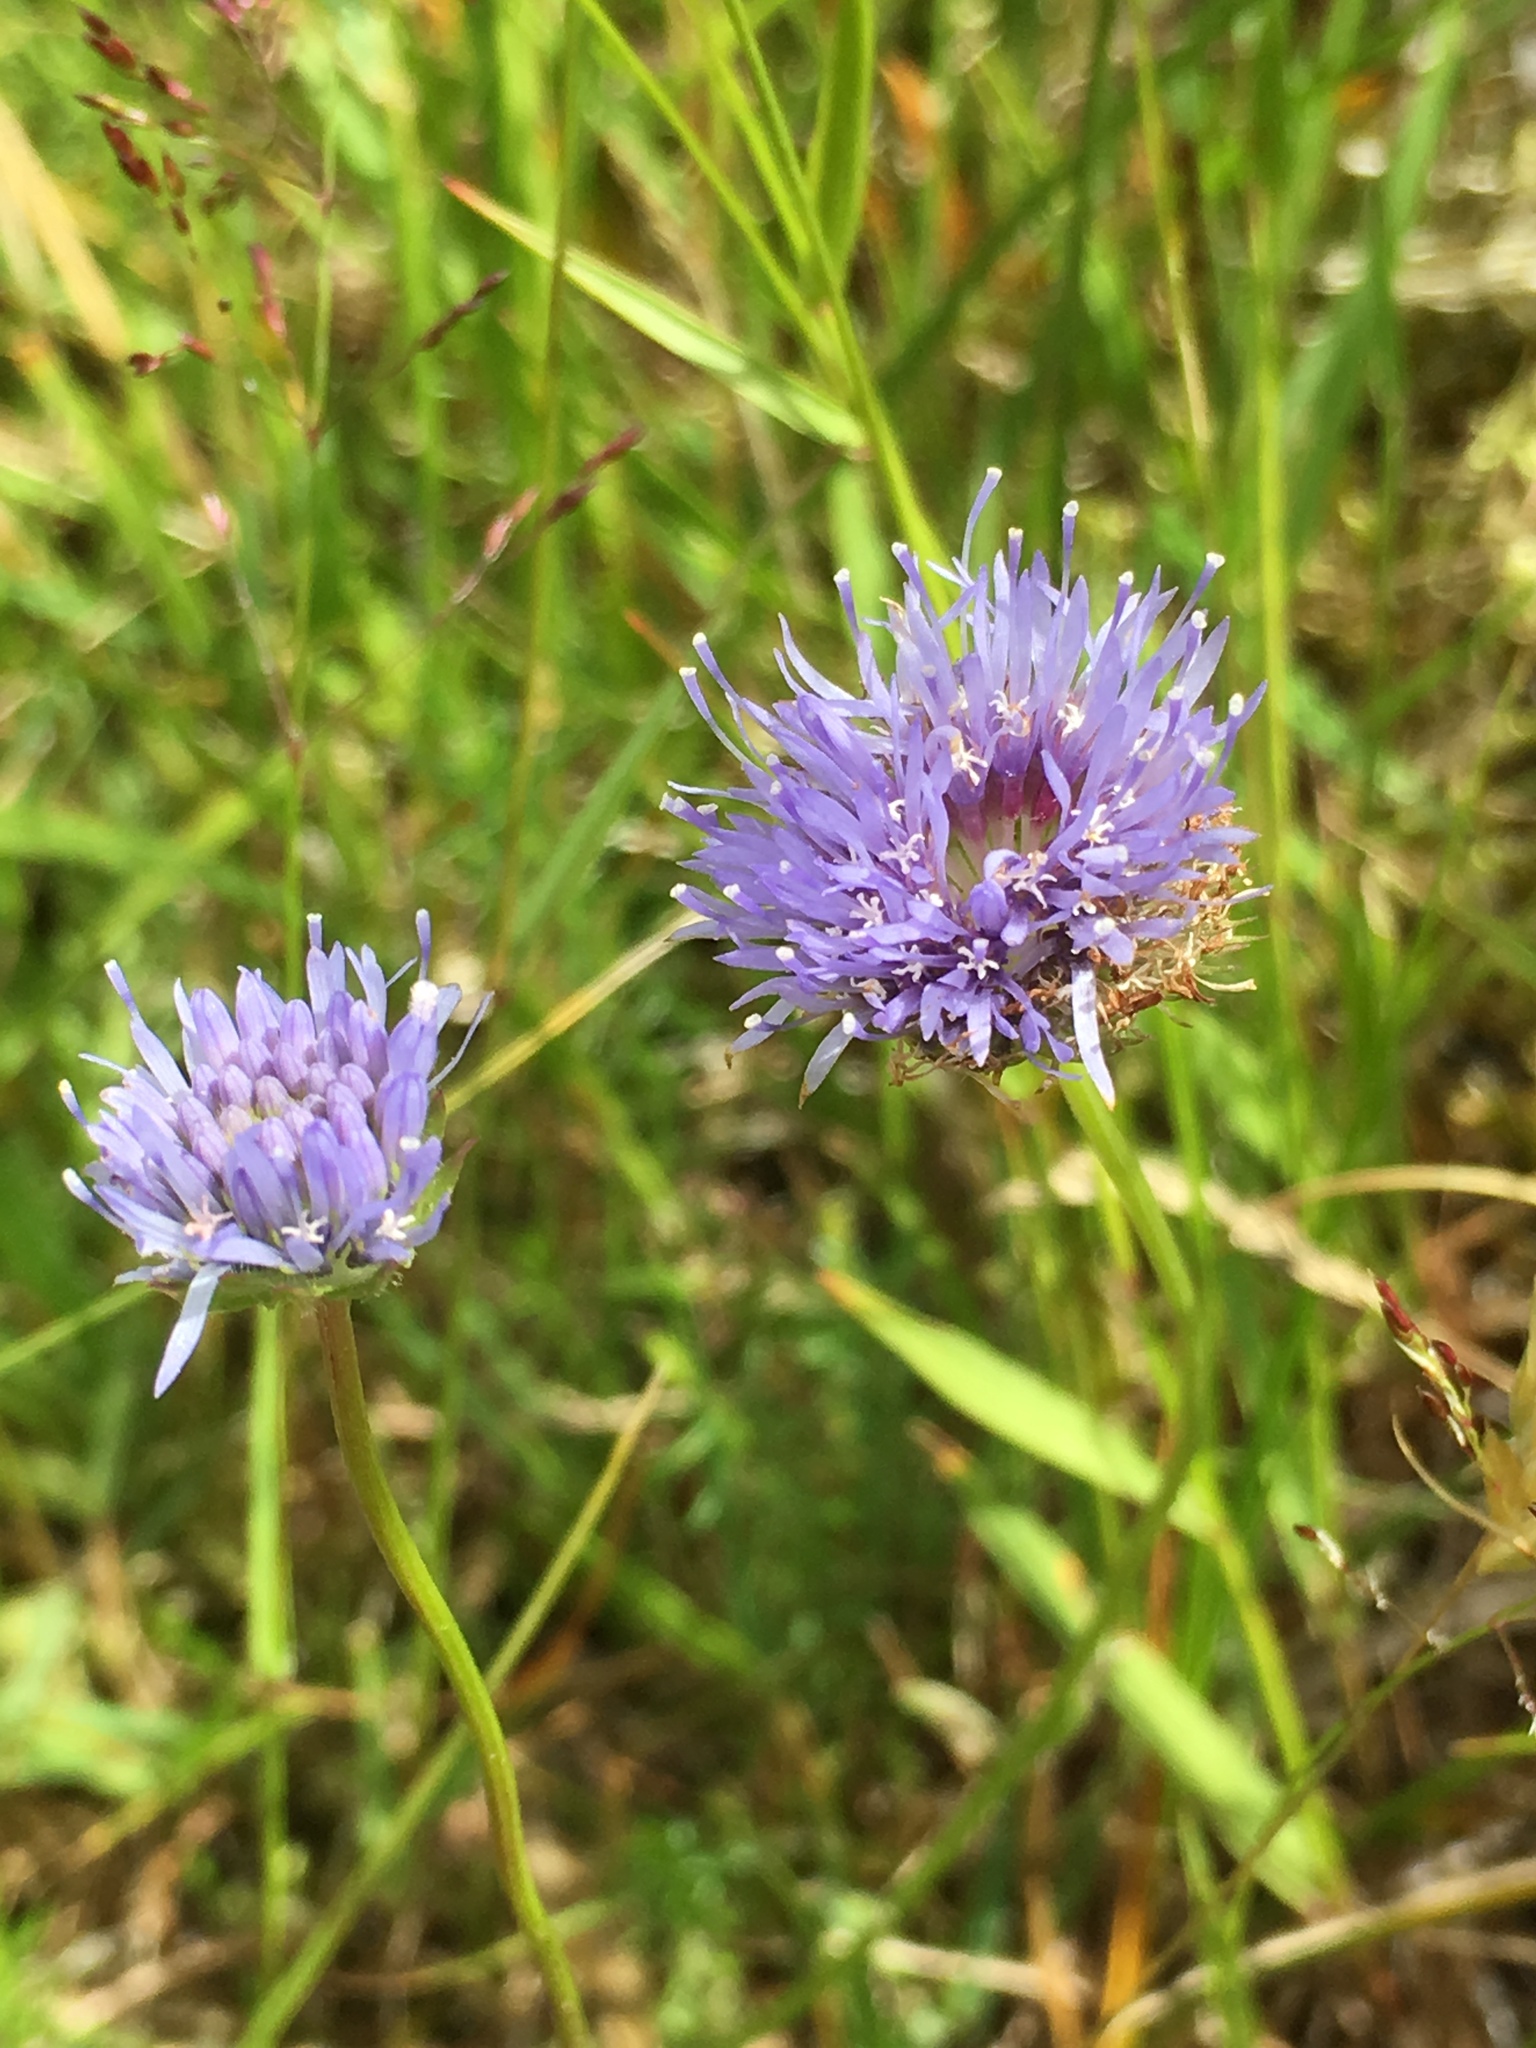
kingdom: Plantae
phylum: Tracheophyta
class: Magnoliopsida
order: Asterales
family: Campanulaceae
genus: Jasione
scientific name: Jasione montana
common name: Sheep's-bit
